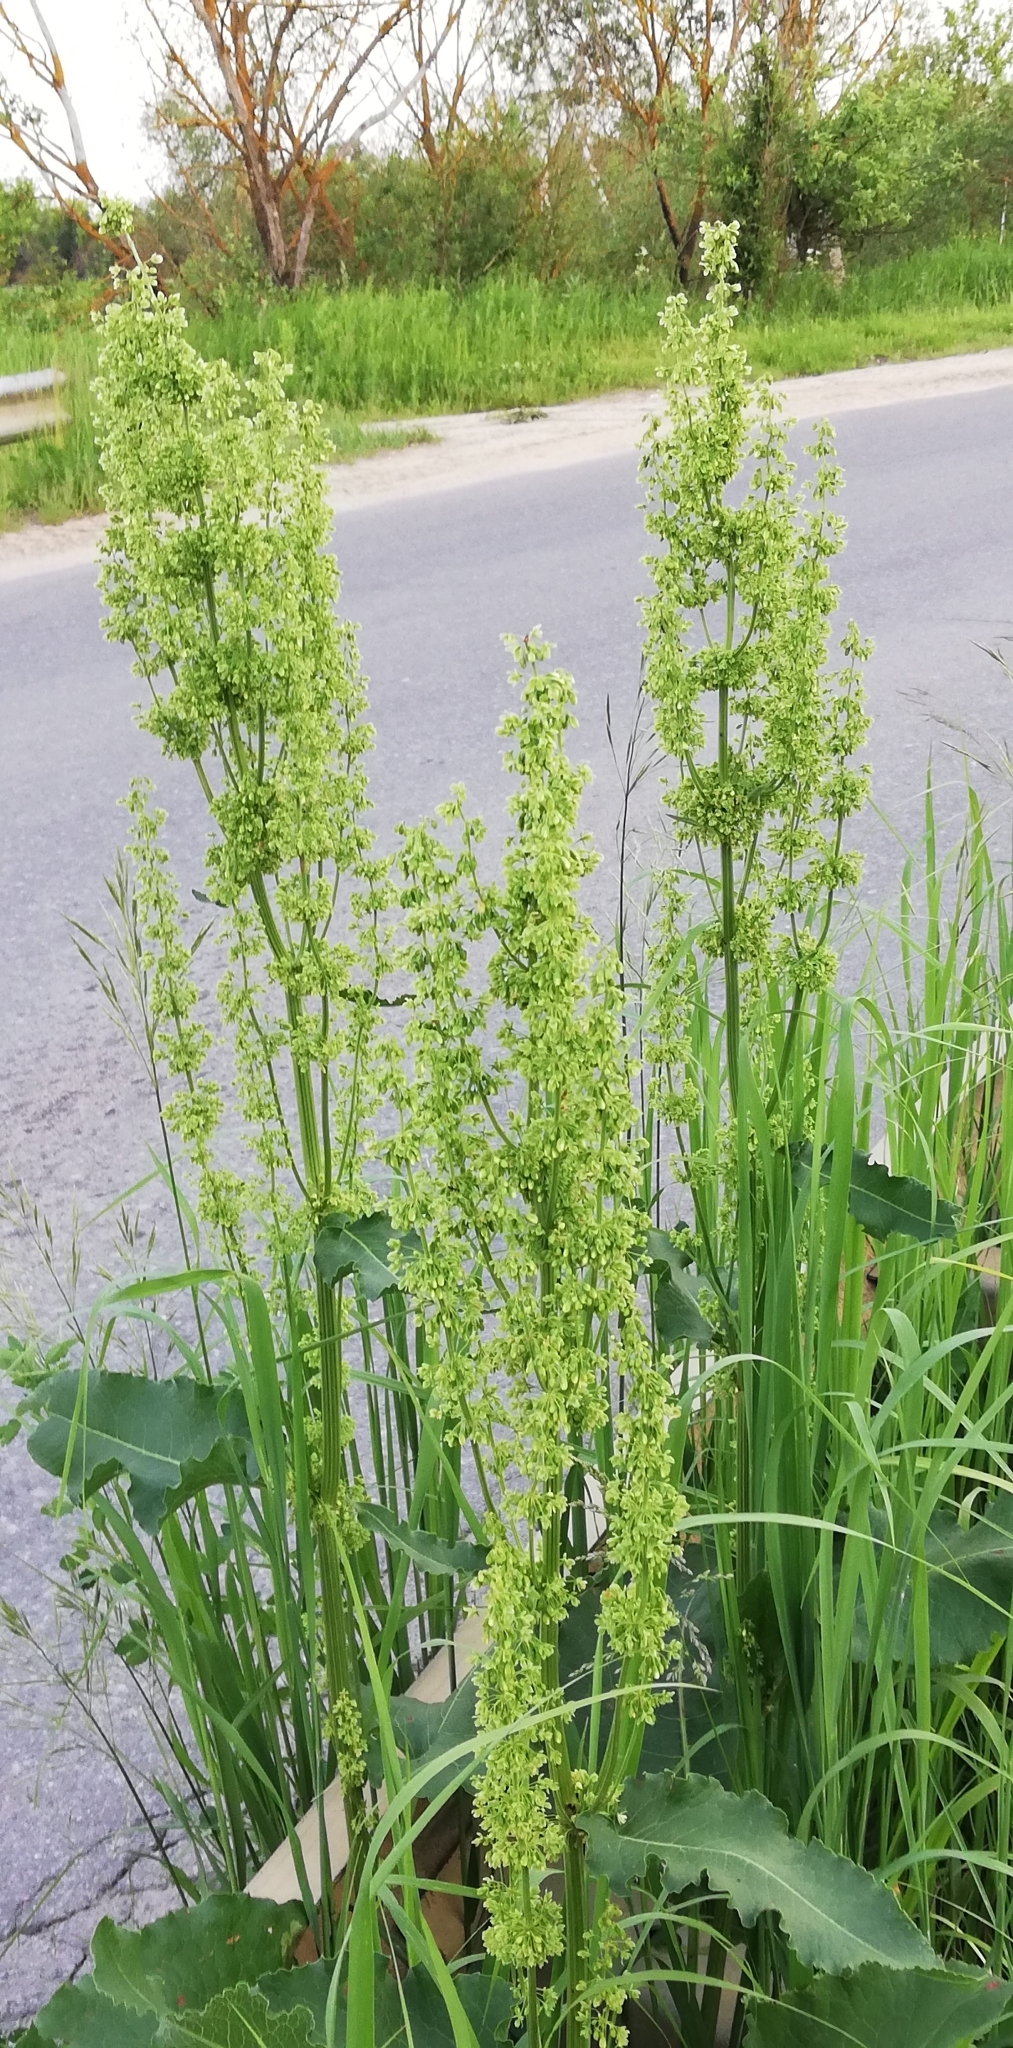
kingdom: Plantae
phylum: Tracheophyta
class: Magnoliopsida
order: Caryophyllales
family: Polygonaceae
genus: Rumex
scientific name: Rumex confertus
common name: Russian dock
